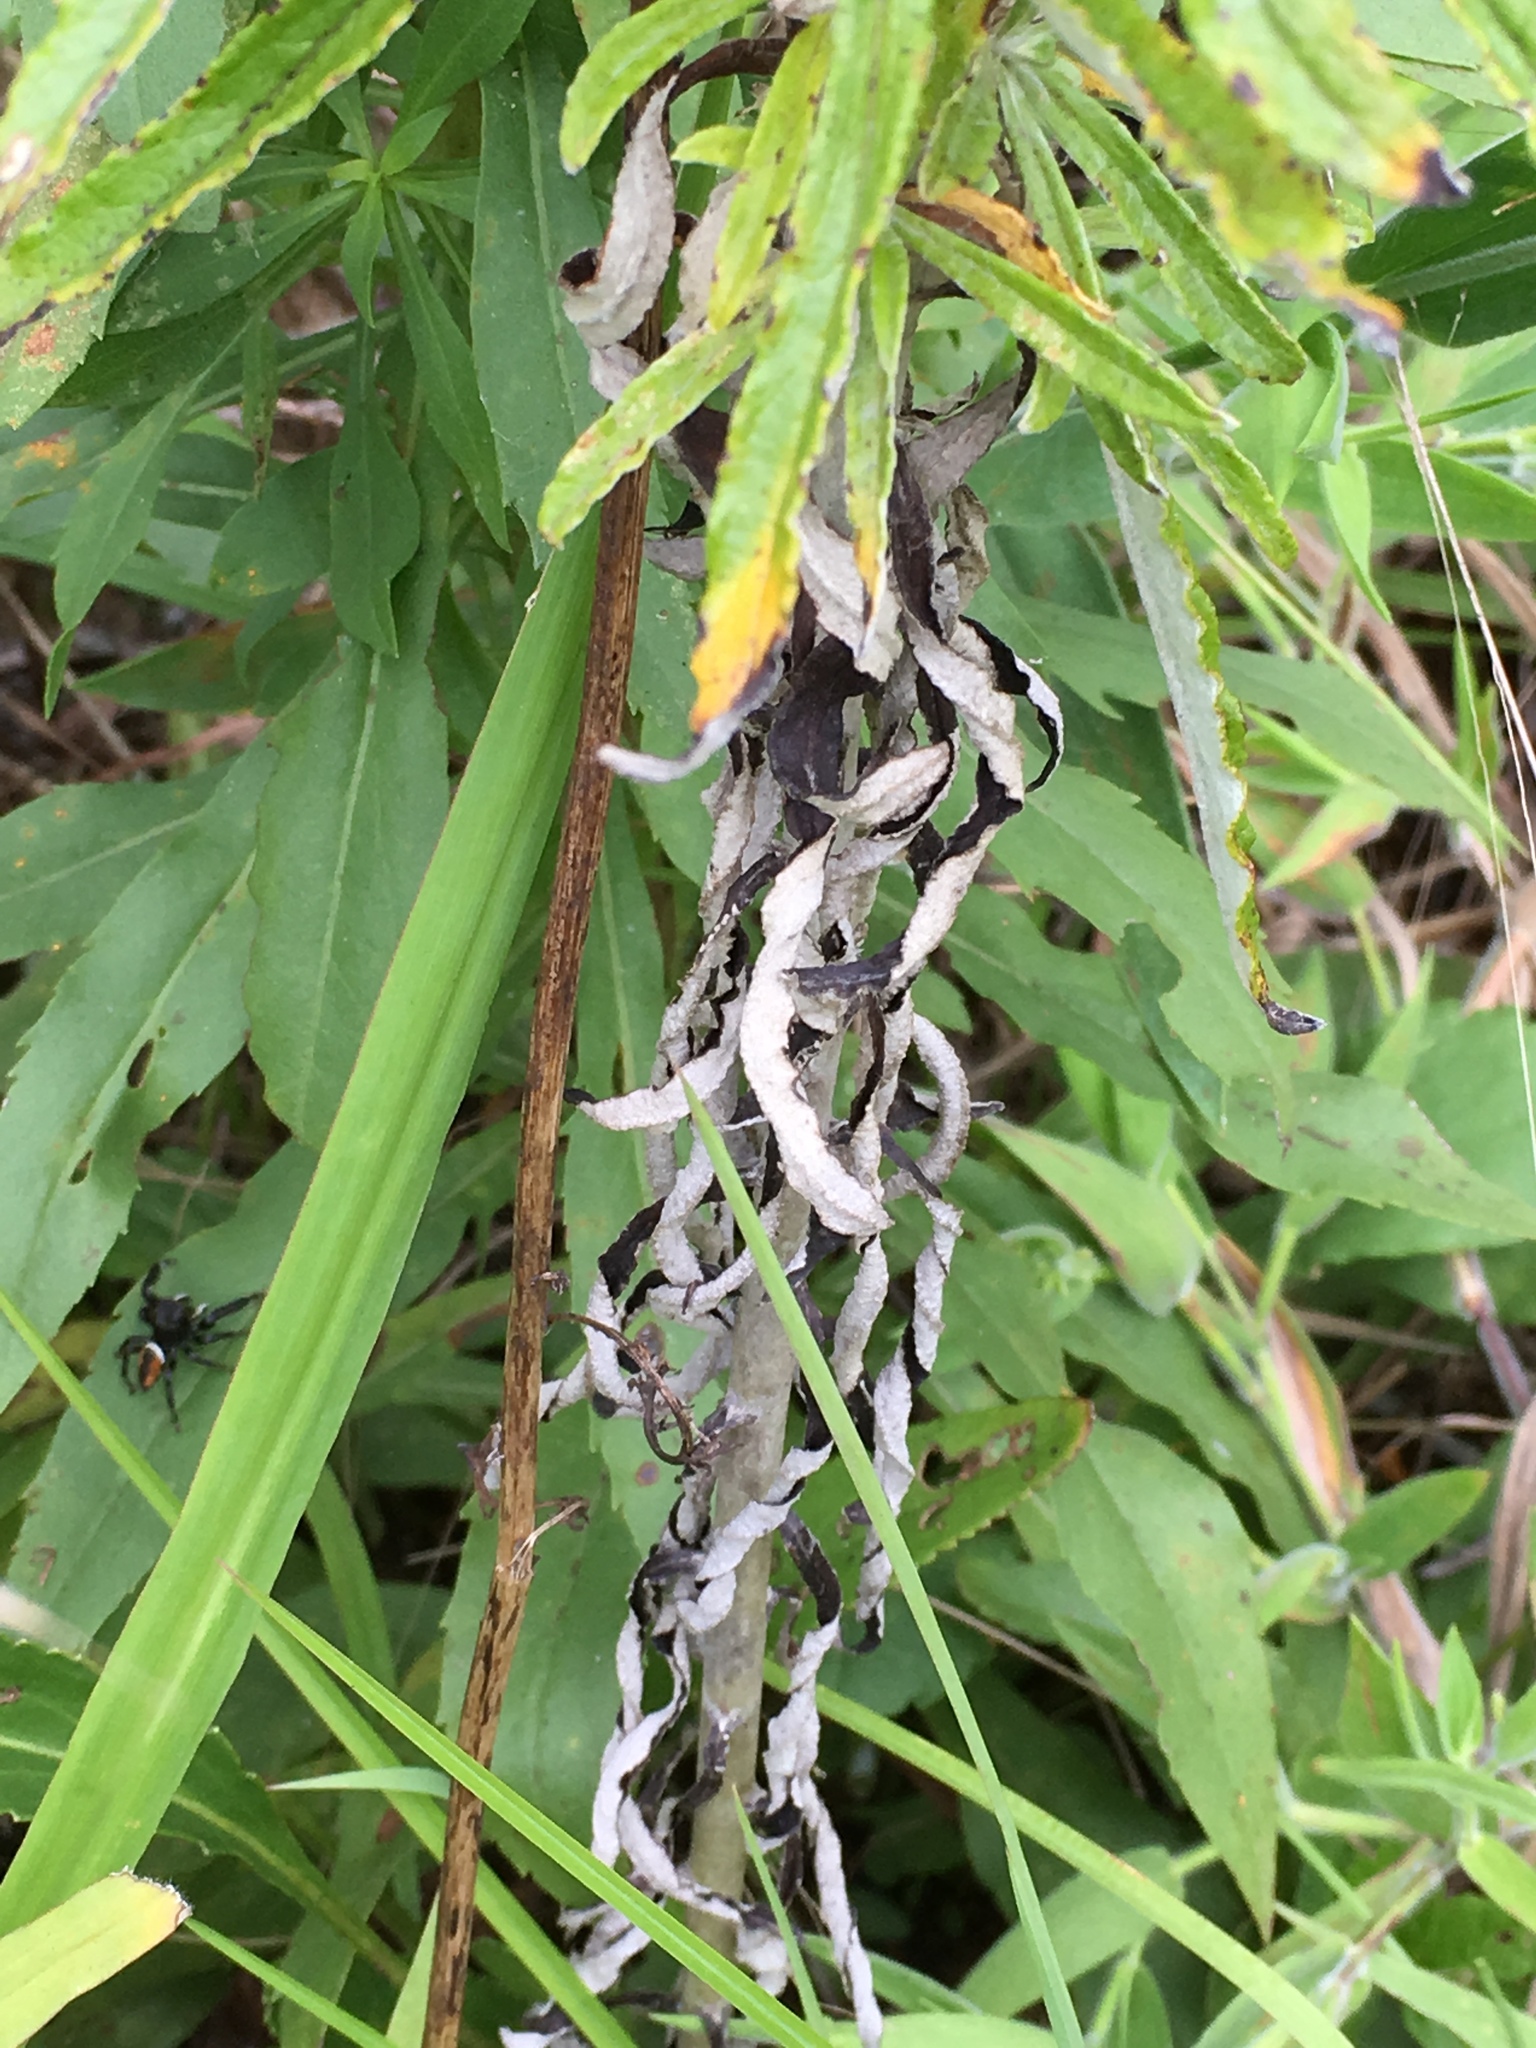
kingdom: Plantae
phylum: Tracheophyta
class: Magnoliopsida
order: Asterales
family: Asteraceae
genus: Pseudognaphalium
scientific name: Pseudognaphalium obtusifolium
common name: Eastern rabbit-tobacco
